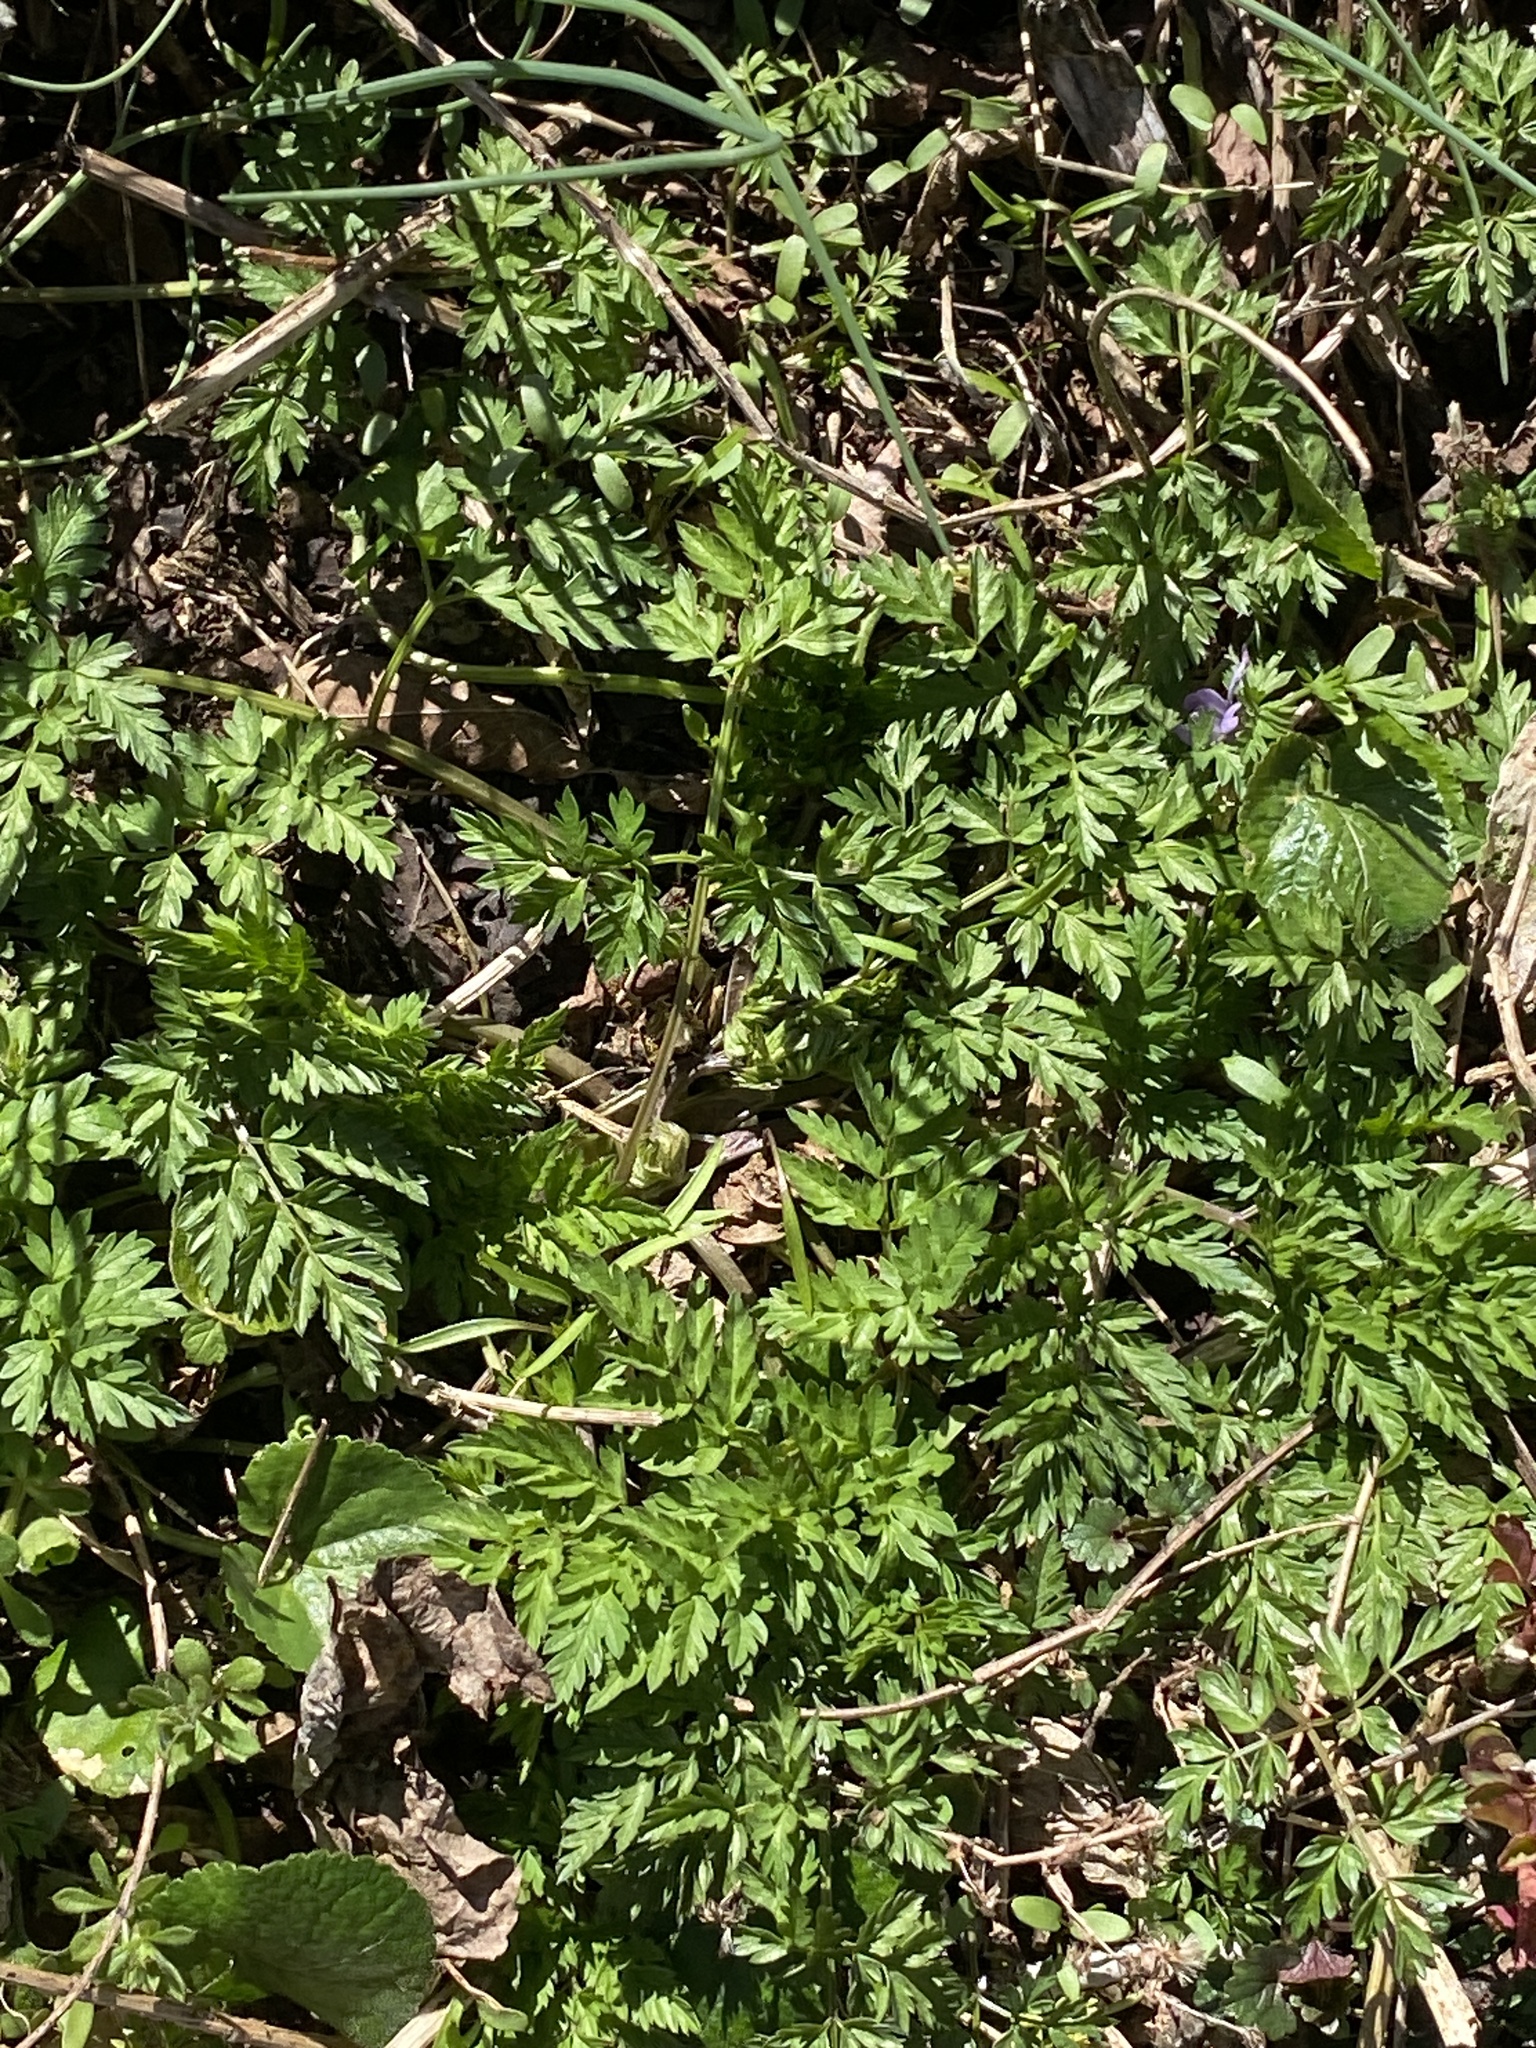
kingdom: Plantae
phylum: Tracheophyta
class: Magnoliopsida
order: Apiales
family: Apiaceae
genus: Anthriscus
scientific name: Anthriscus sylvestris
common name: Cow parsley
